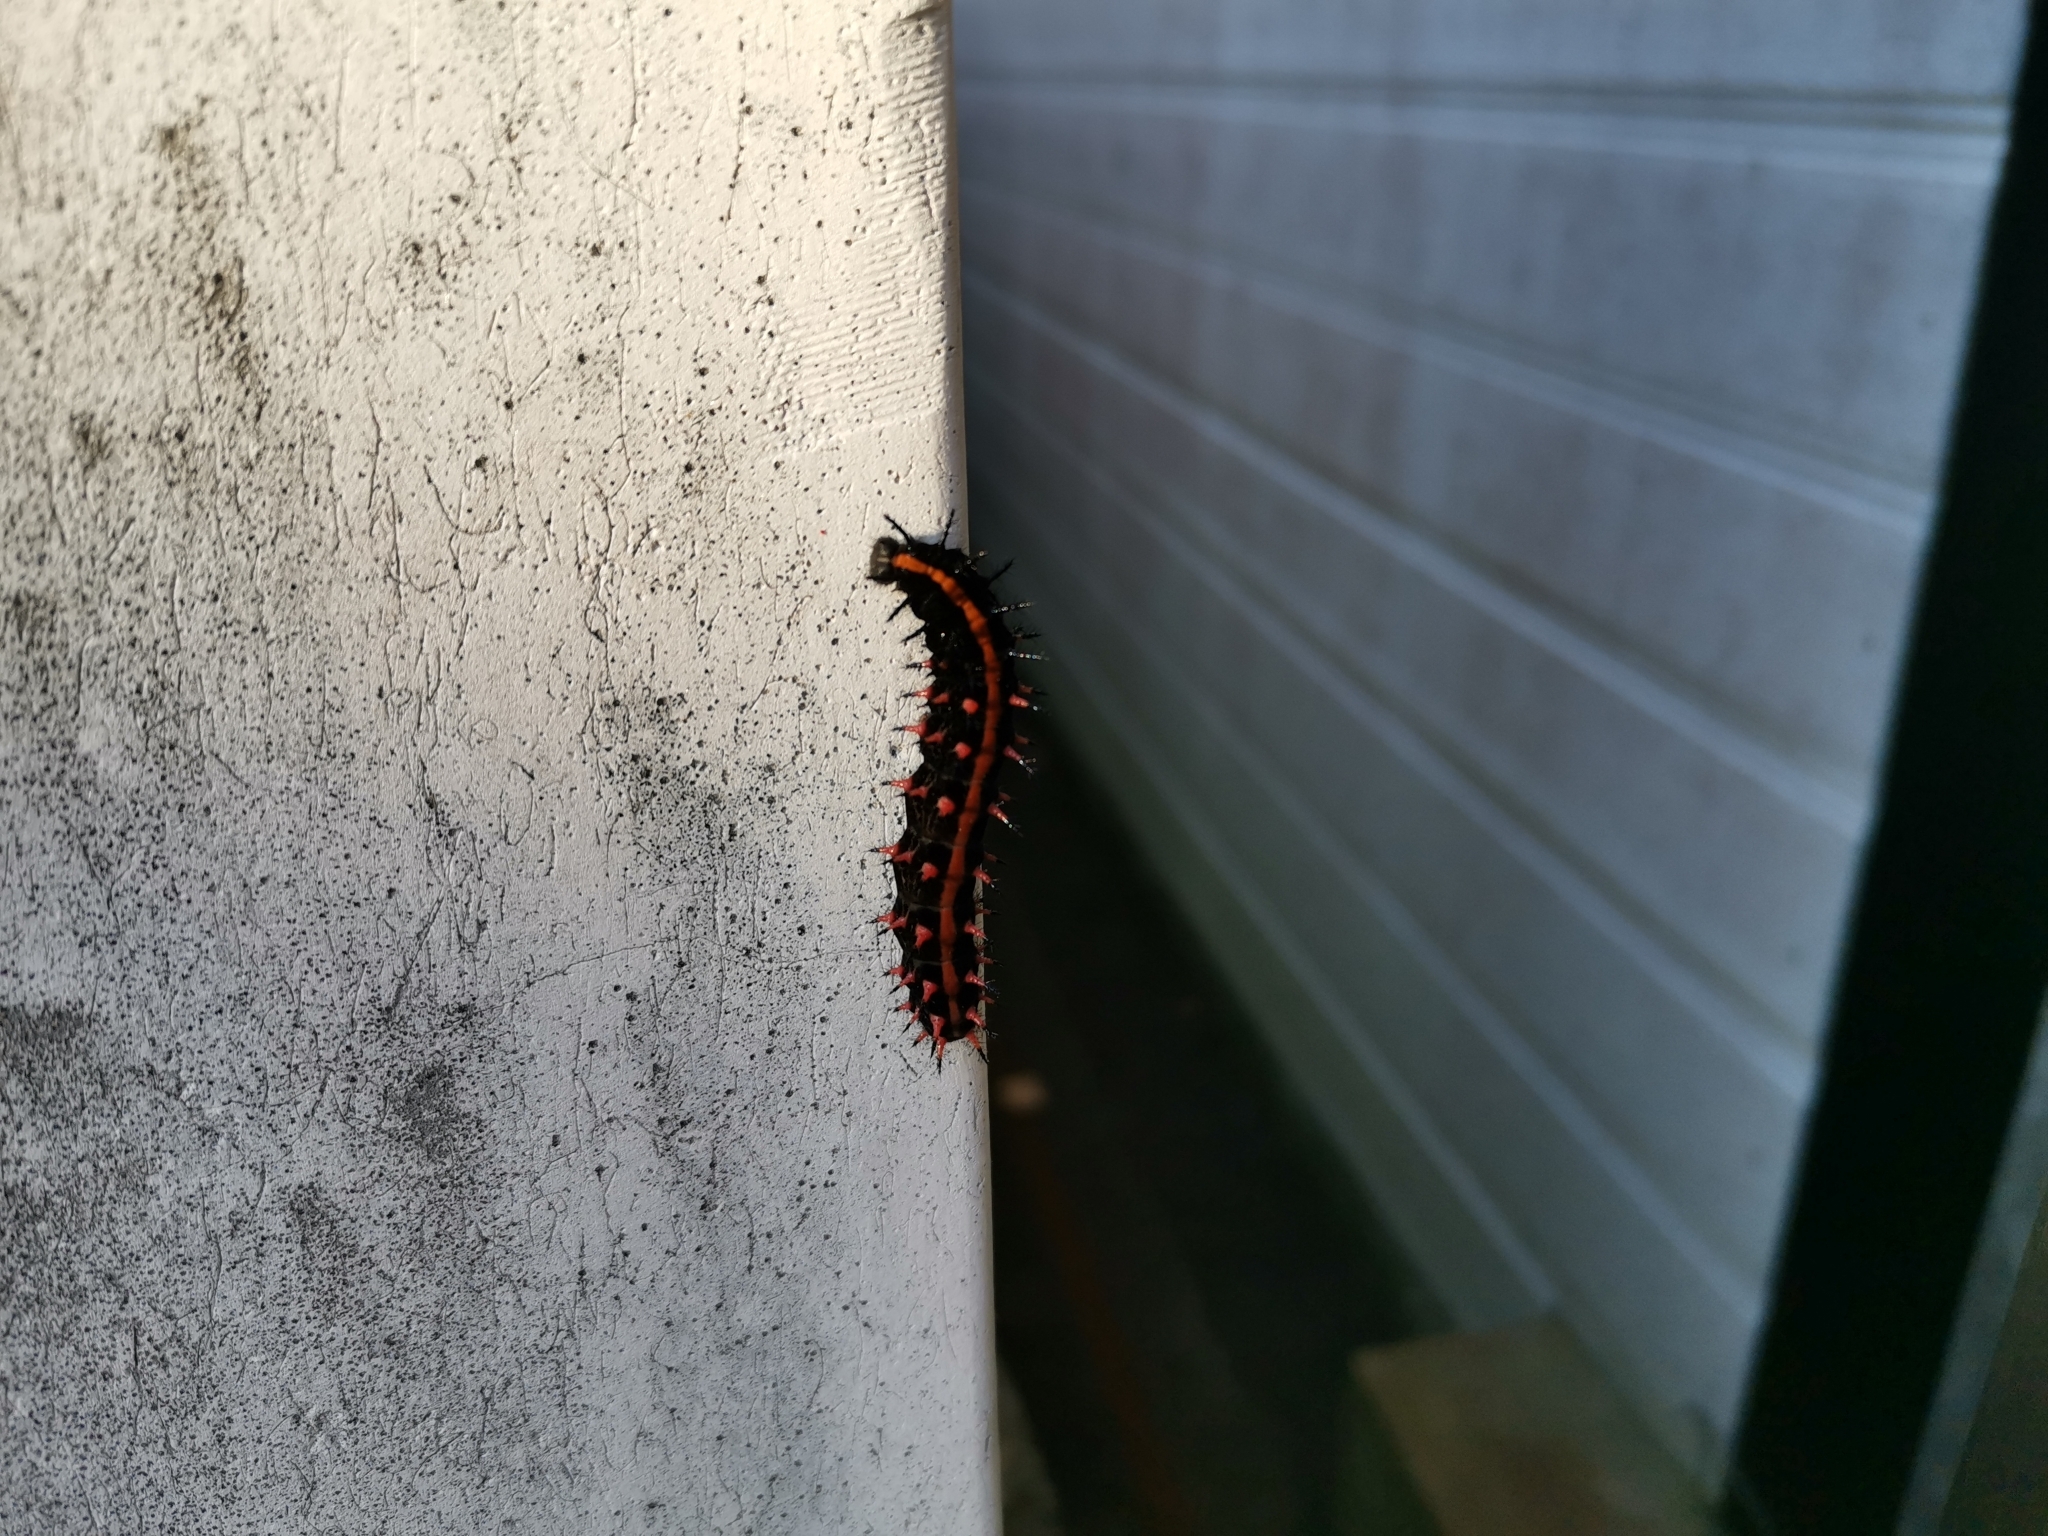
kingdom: Animalia
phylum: Arthropoda
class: Insecta
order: Lepidoptera
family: Nymphalidae
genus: Argynnis
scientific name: Argynnis hyperbius
